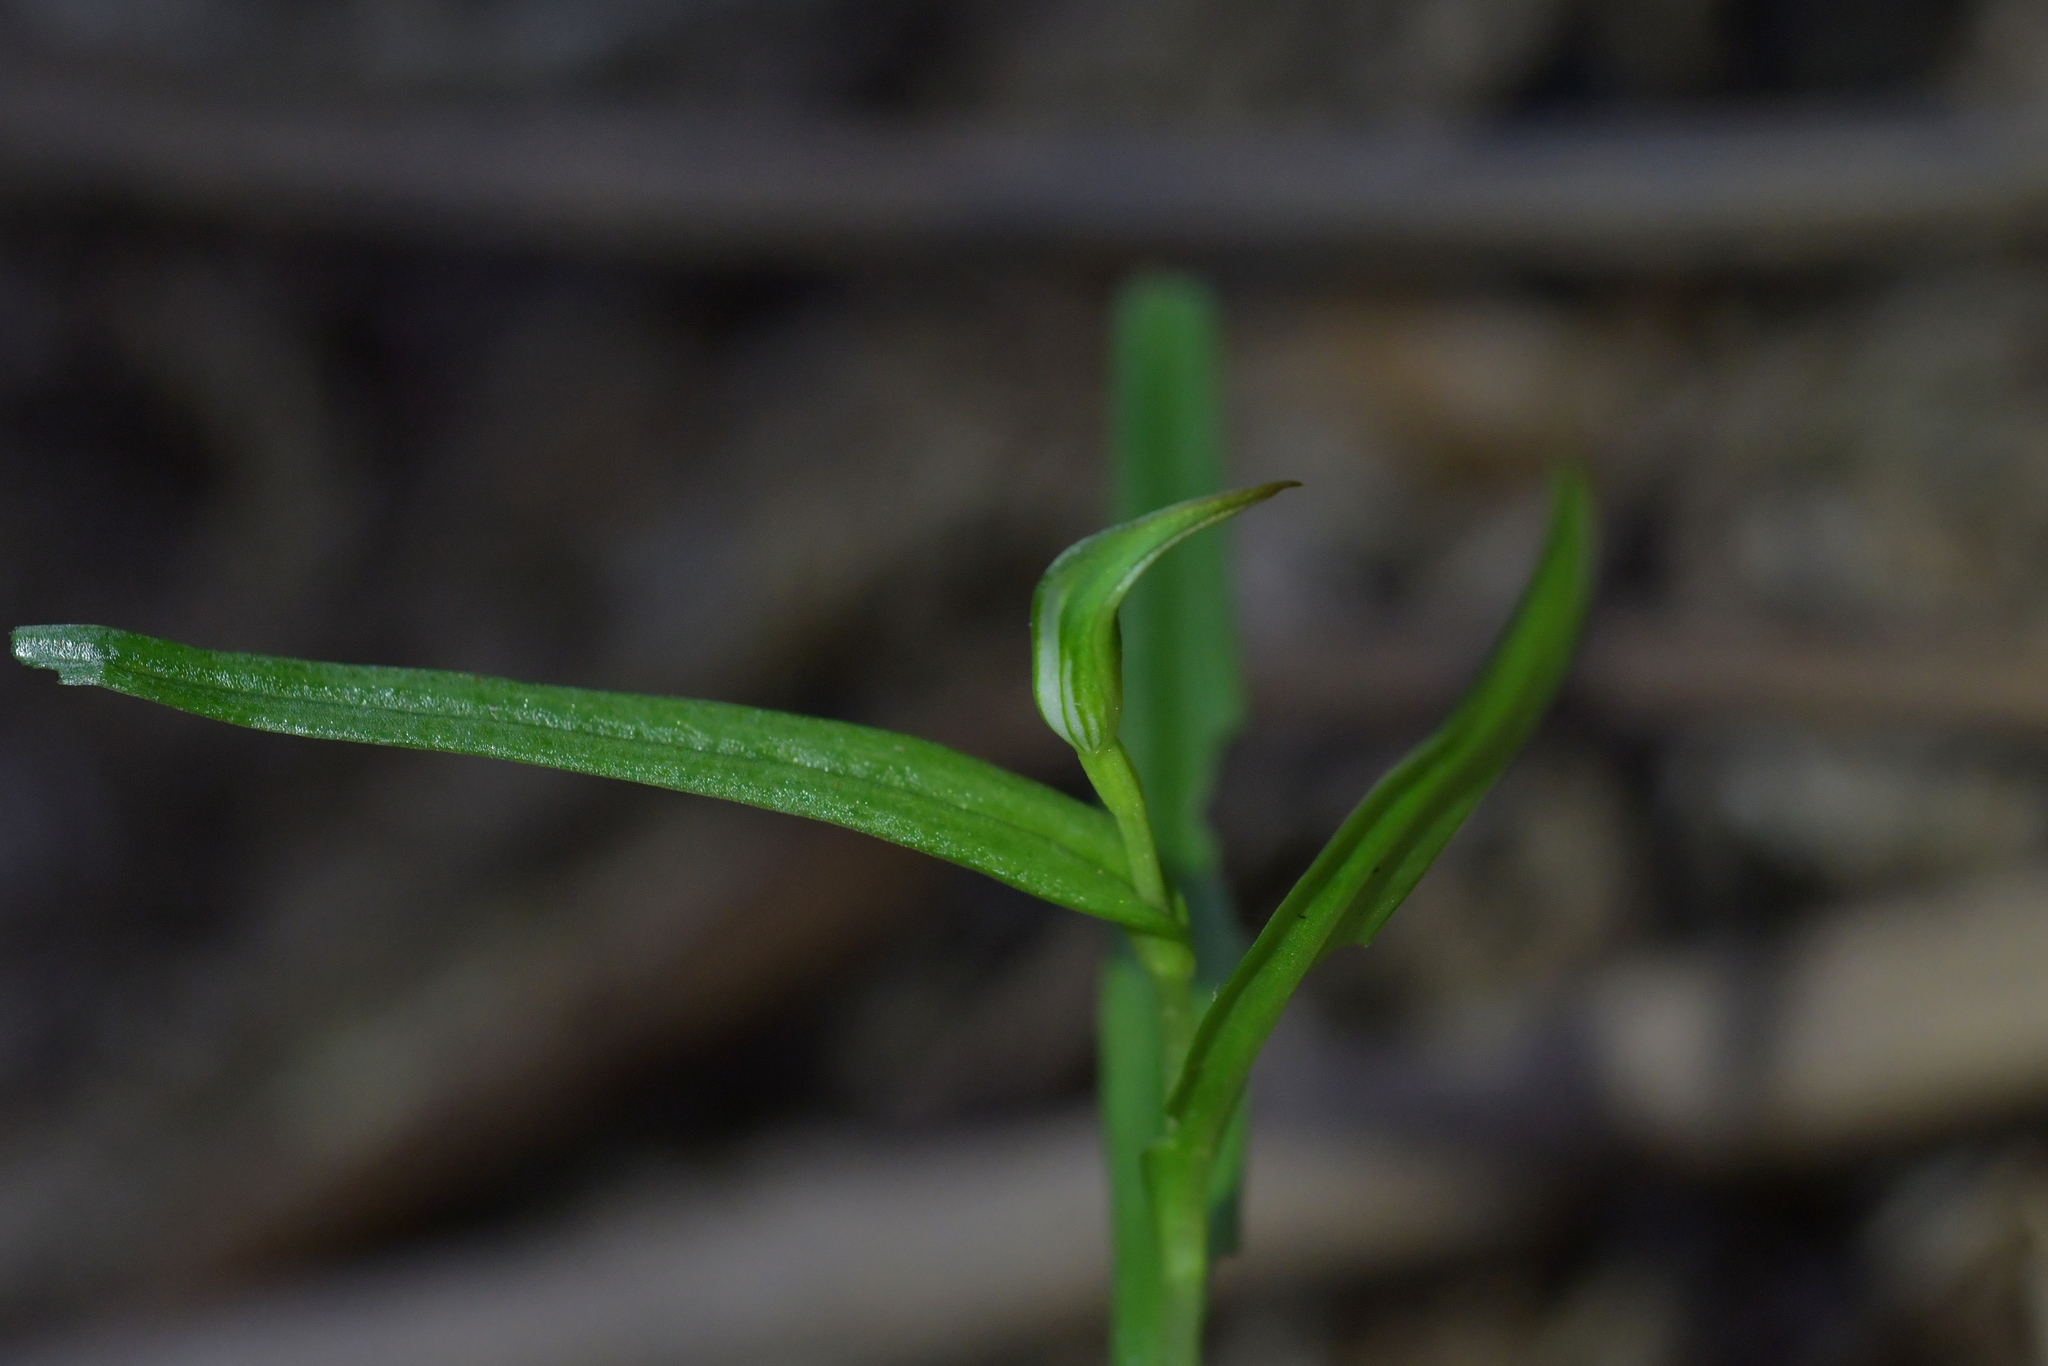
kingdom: Plantae
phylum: Tracheophyta
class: Liliopsida
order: Asparagales
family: Orchidaceae
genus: Pterostylis
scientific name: Pterostylis graminea
